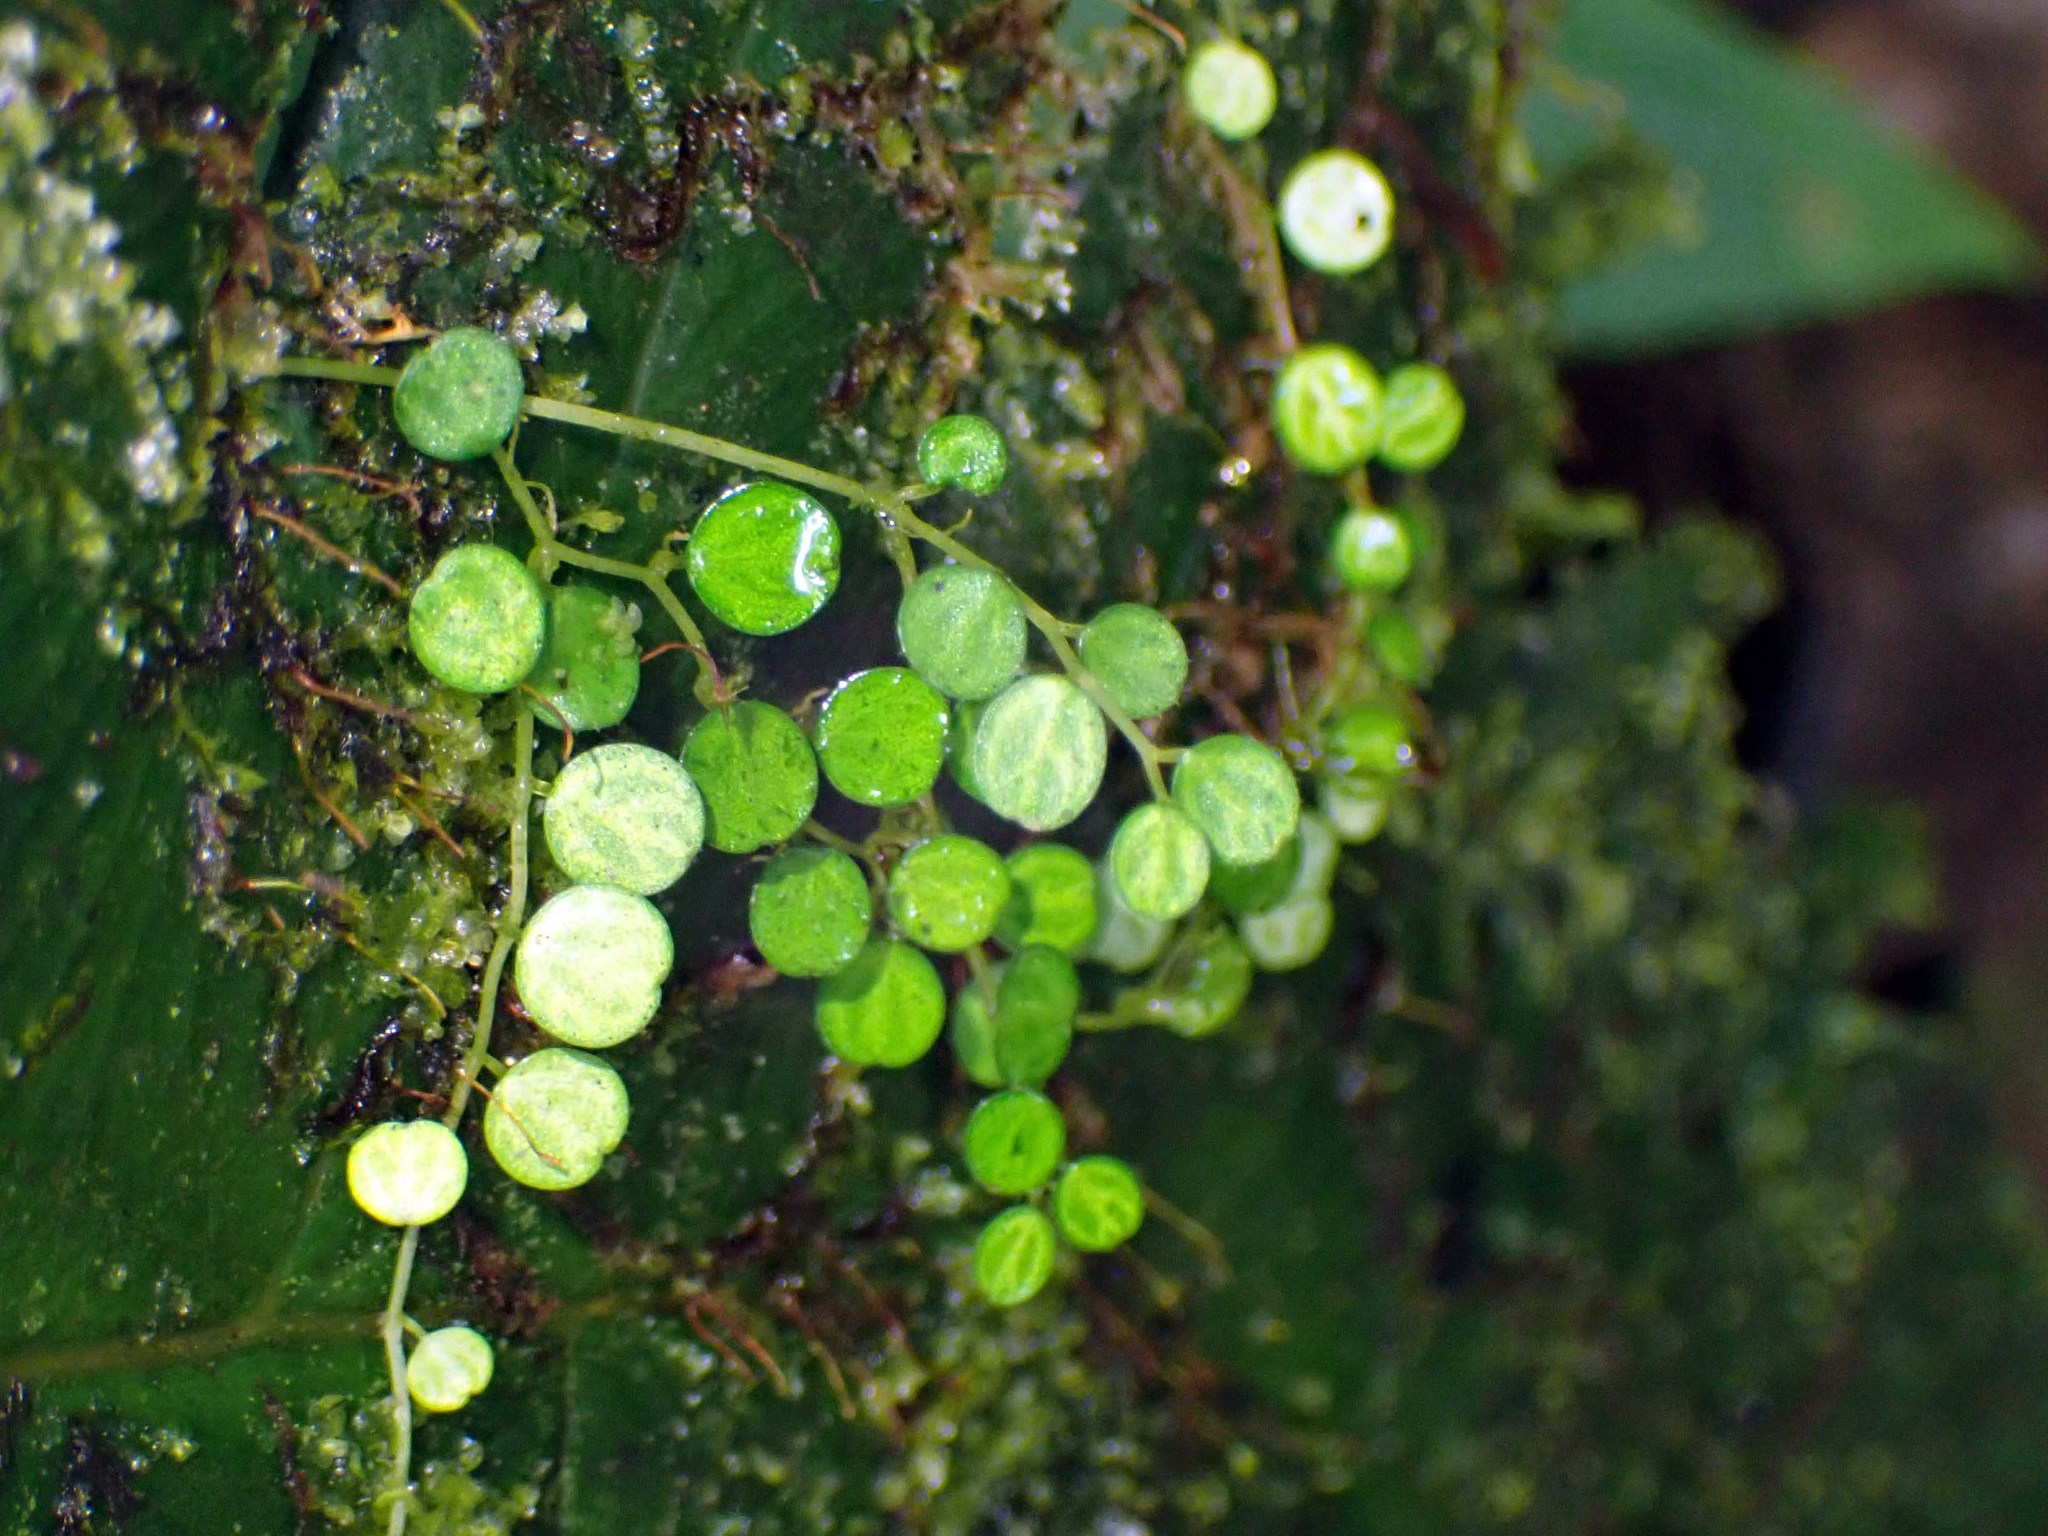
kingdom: Plantae
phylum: Tracheophyta
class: Magnoliopsida
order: Piperales
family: Piperaceae
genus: Peperomia
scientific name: Peperomia emarginella
